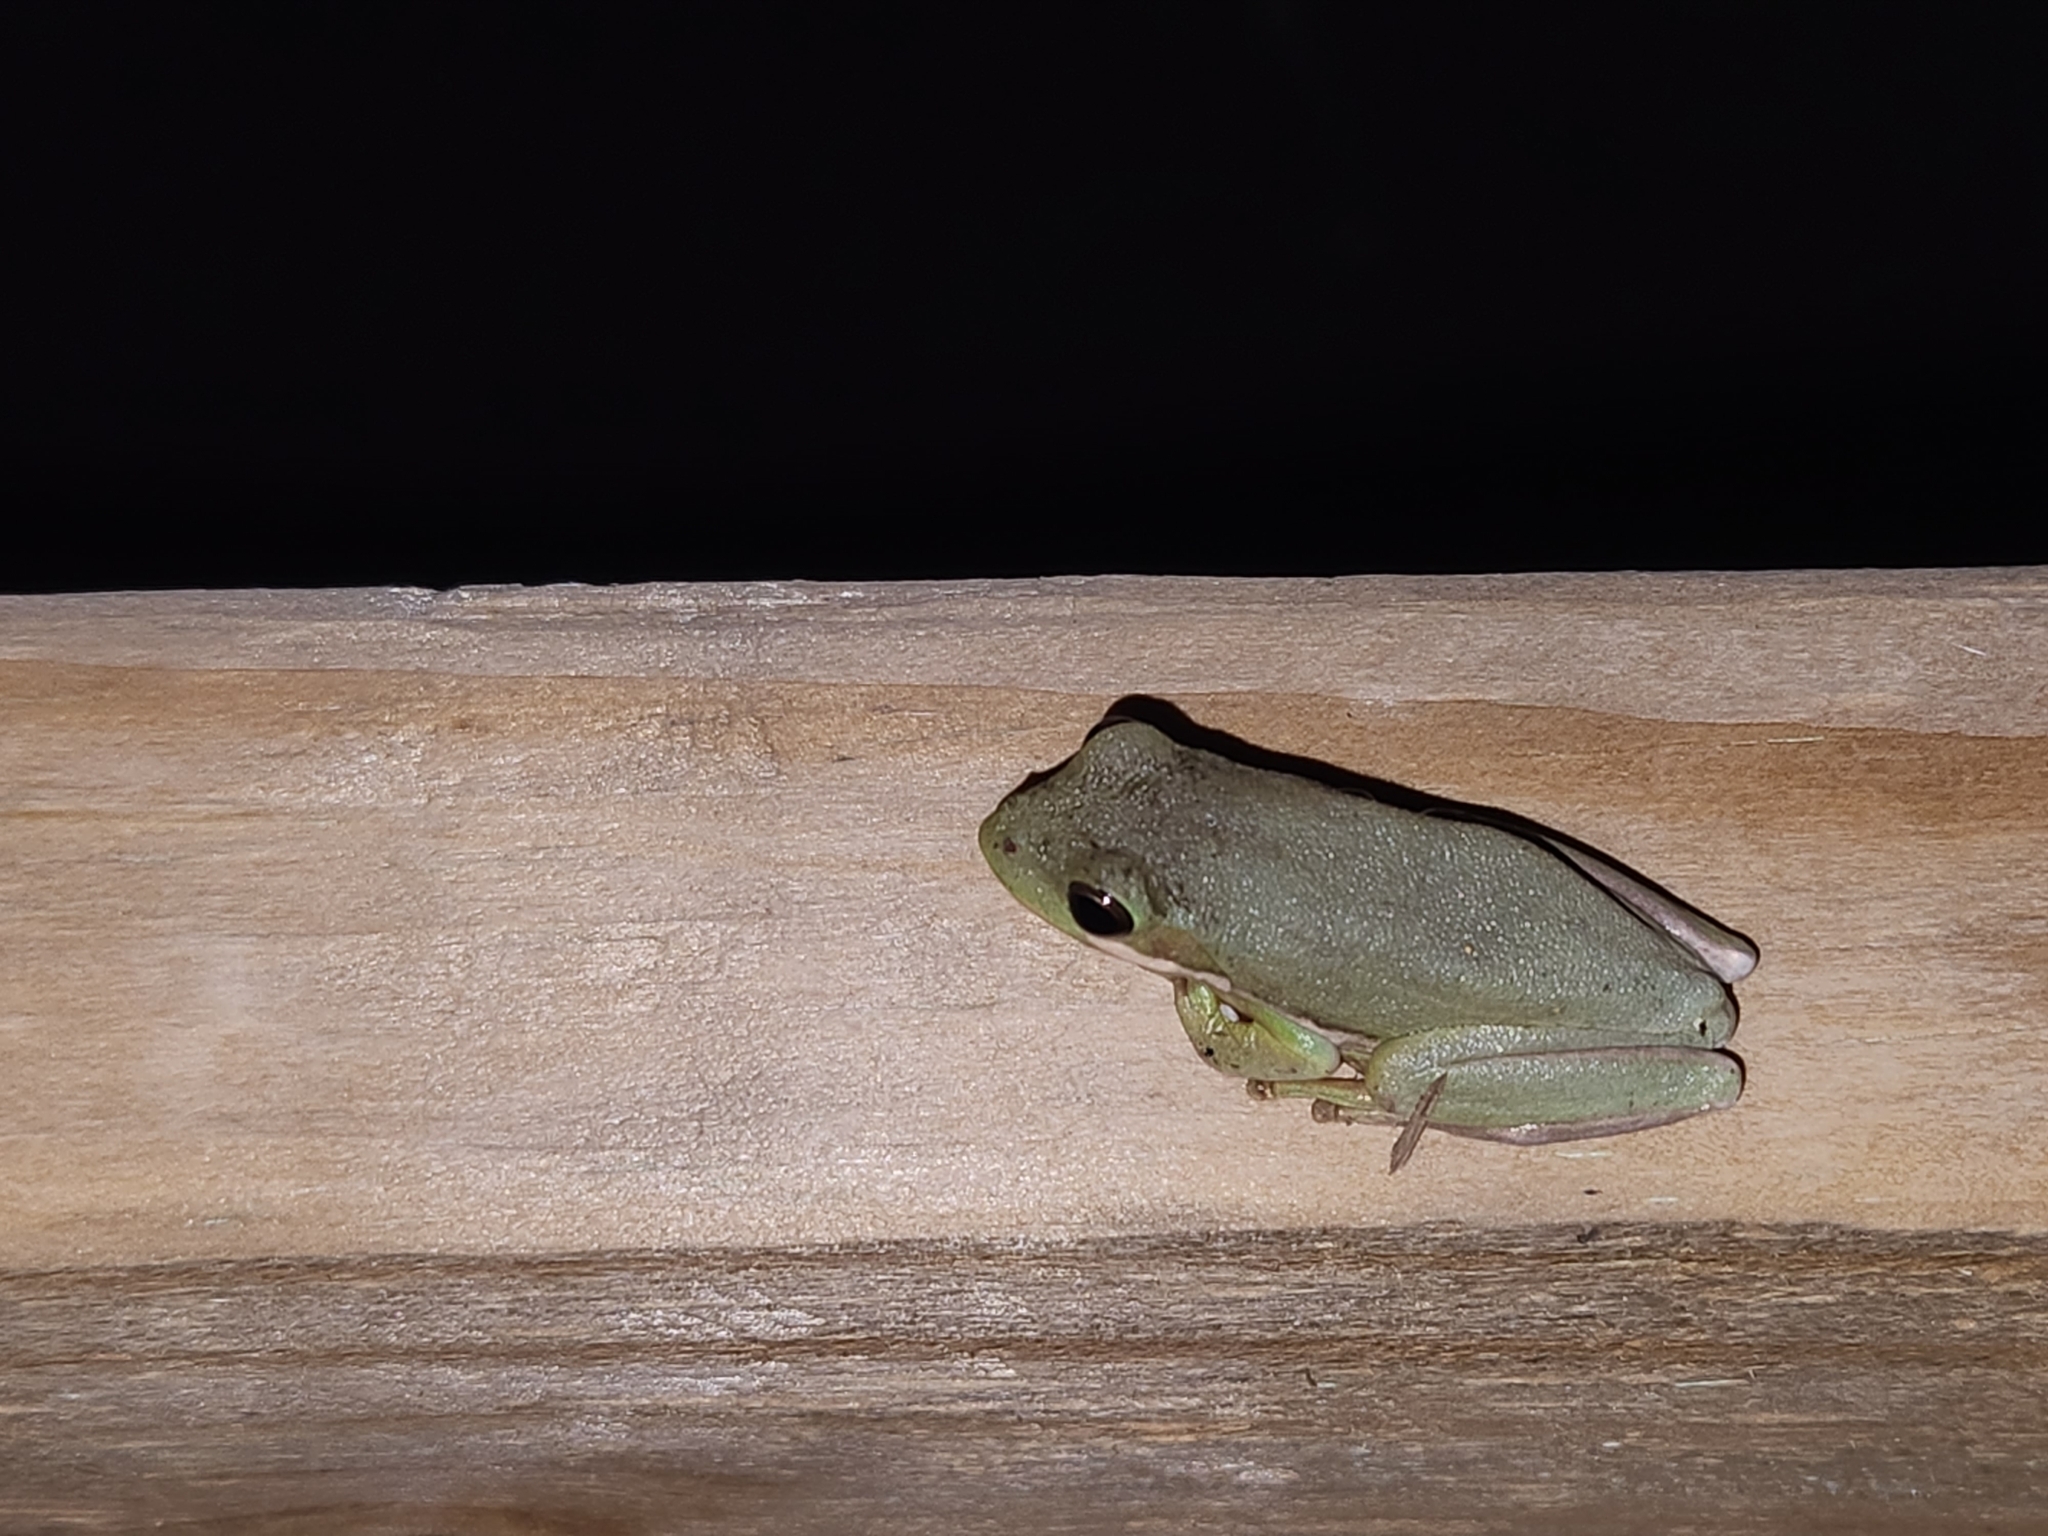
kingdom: Animalia
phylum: Chordata
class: Amphibia
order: Anura
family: Hylidae
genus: Dryophytes
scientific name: Dryophytes squirellus
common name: Squirrel treefrog
